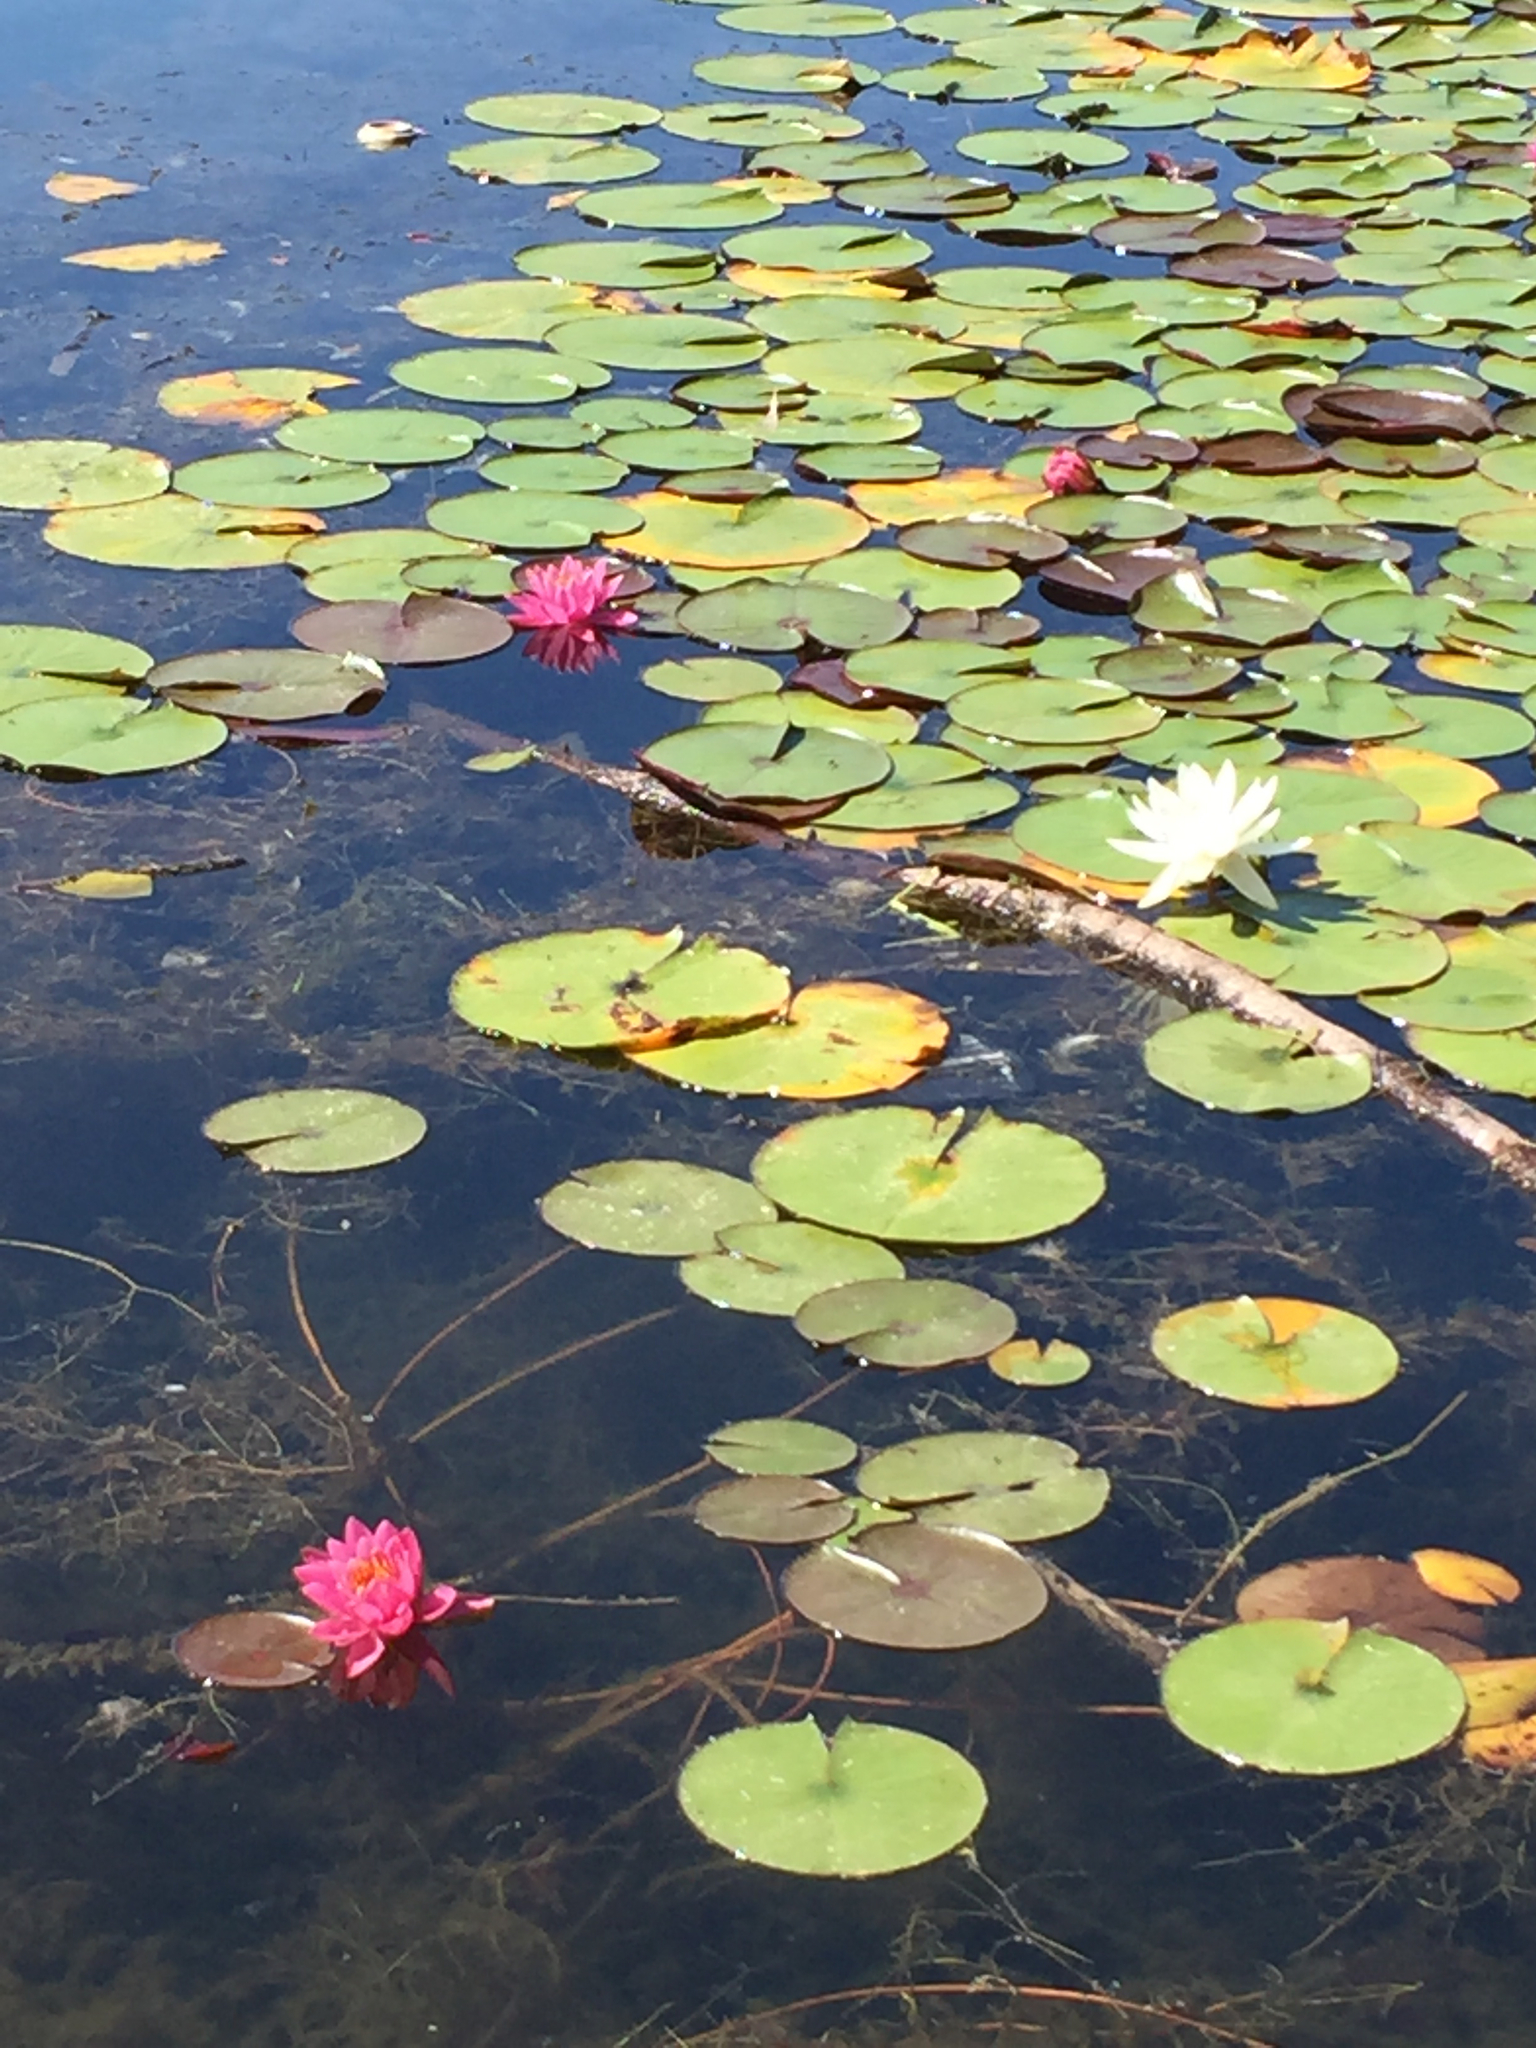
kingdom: Plantae
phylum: Tracheophyta
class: Magnoliopsida
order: Nymphaeales
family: Nymphaeaceae
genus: Nymphaea
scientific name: Nymphaea odorata
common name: Fragrant water-lily
